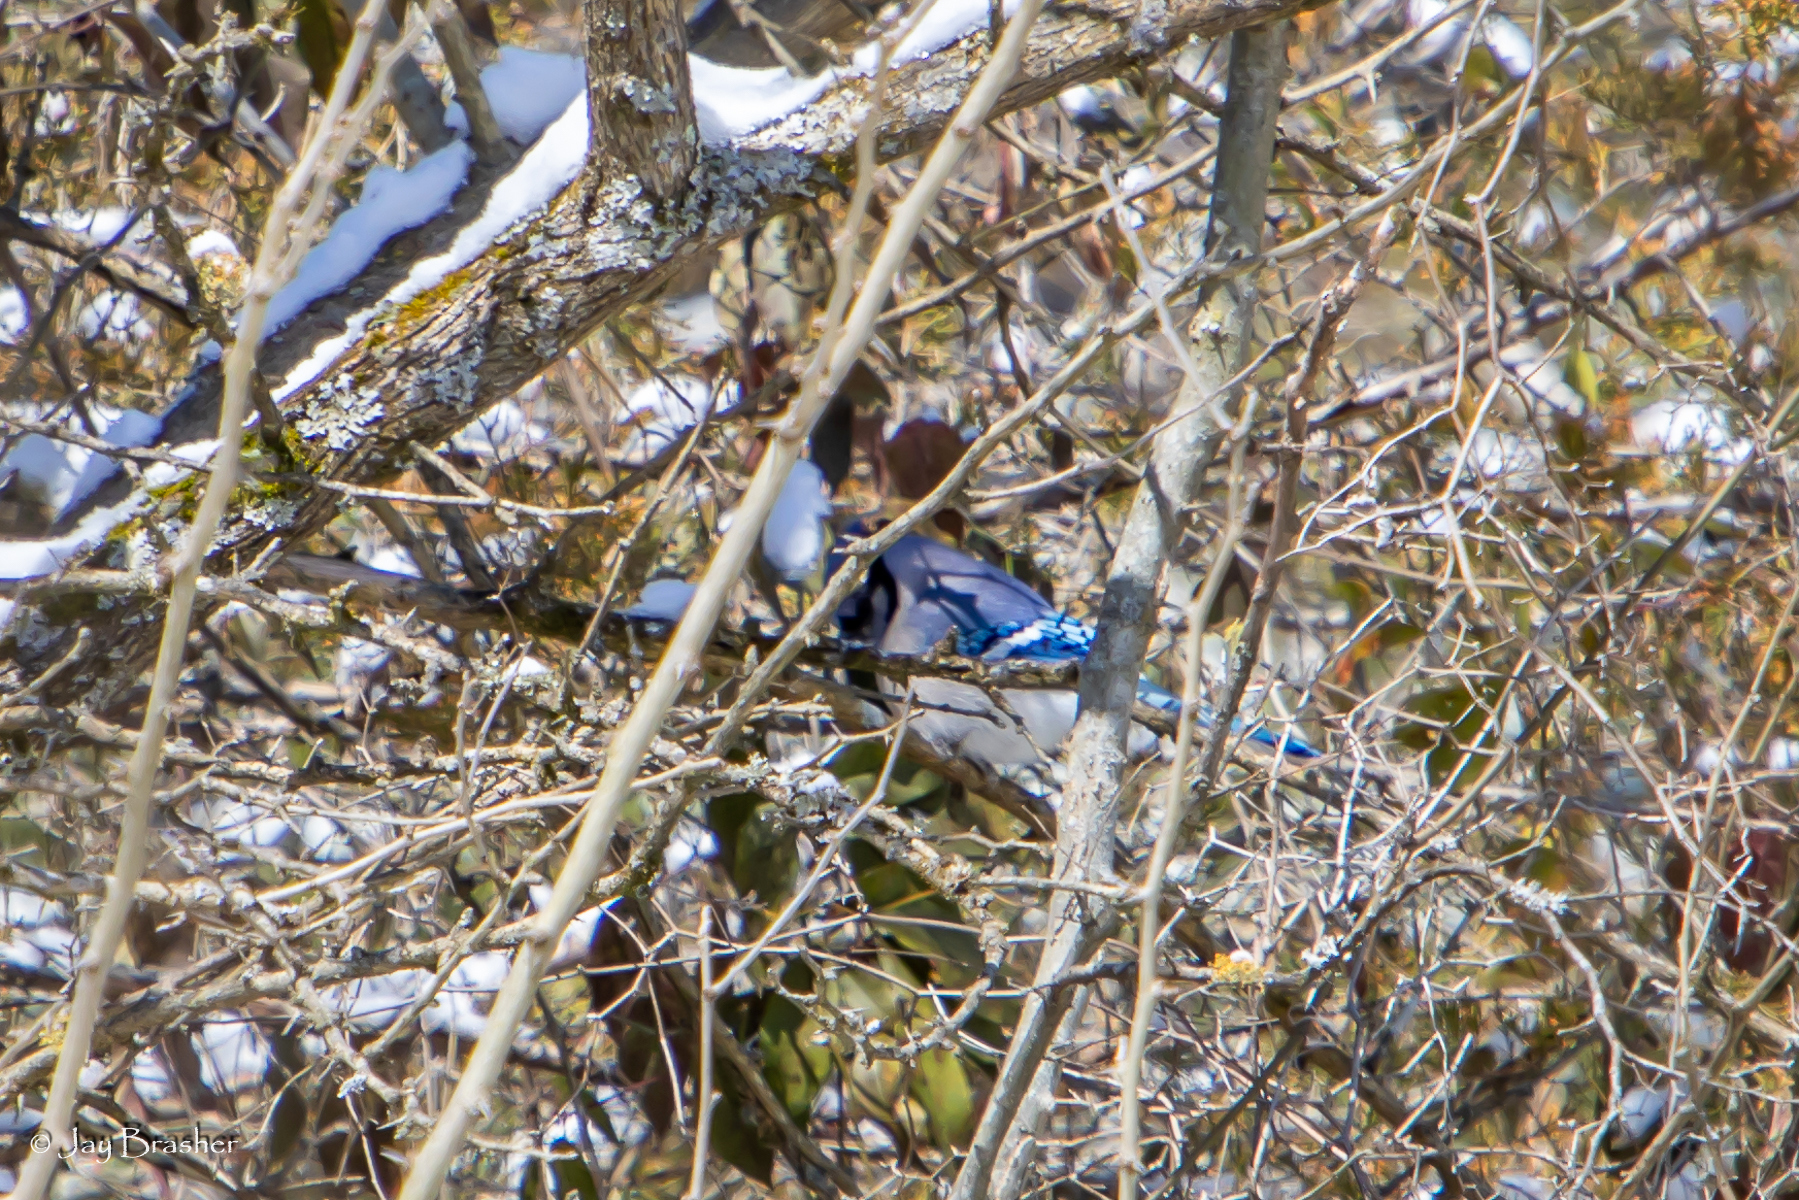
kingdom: Animalia
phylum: Chordata
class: Aves
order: Passeriformes
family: Corvidae
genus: Cyanocitta
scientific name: Cyanocitta cristata
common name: Blue jay
